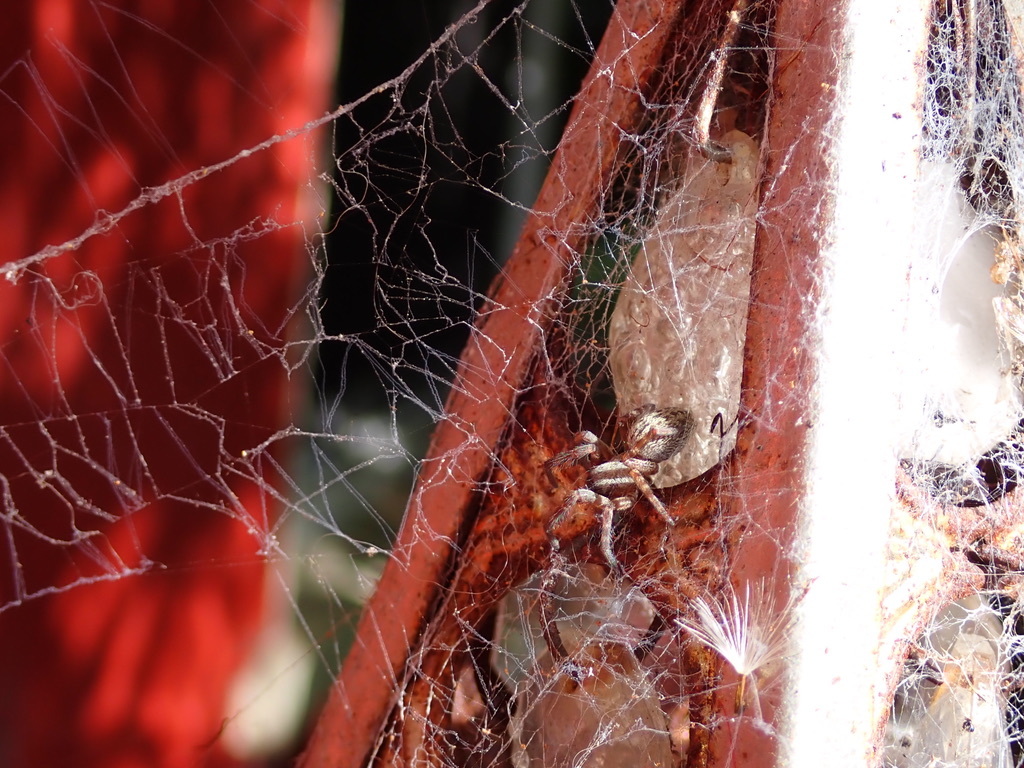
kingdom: Animalia
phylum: Arthropoda
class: Arachnida
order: Araneae
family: Desidae
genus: Badumna
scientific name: Badumna longinqua
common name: Gray house spider
